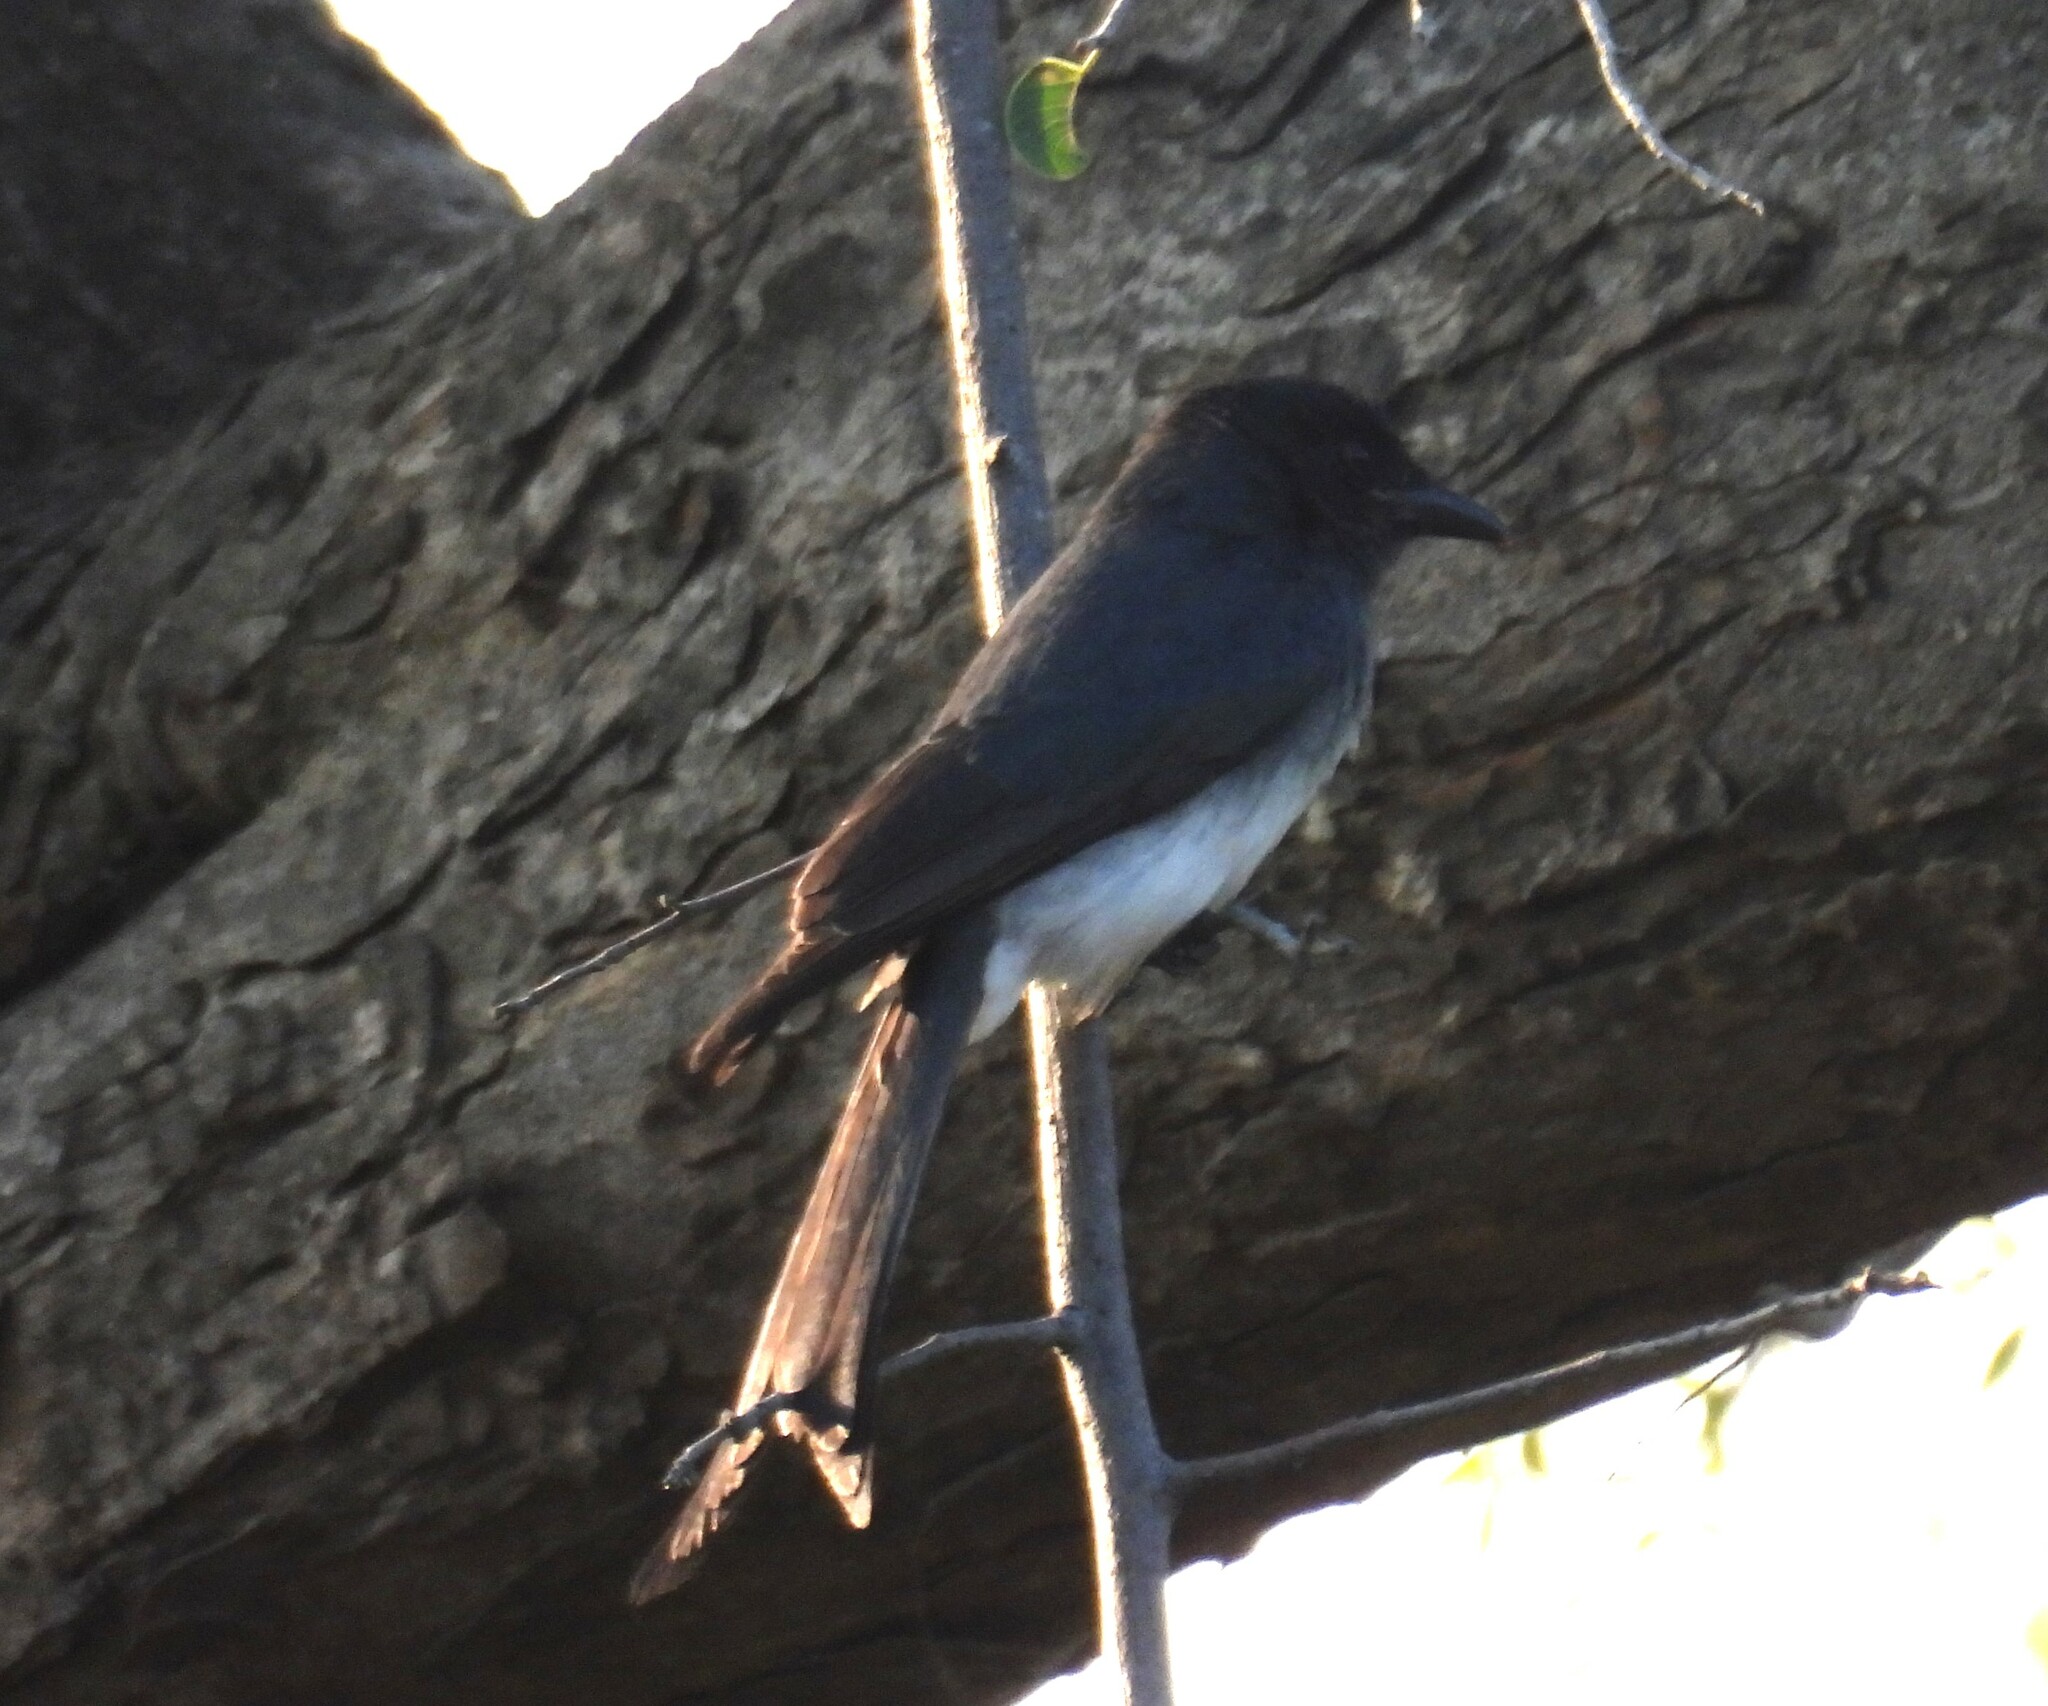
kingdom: Animalia
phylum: Chordata
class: Aves
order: Passeriformes
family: Dicruridae
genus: Dicrurus
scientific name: Dicrurus caerulescens
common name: White-bellied drongo
